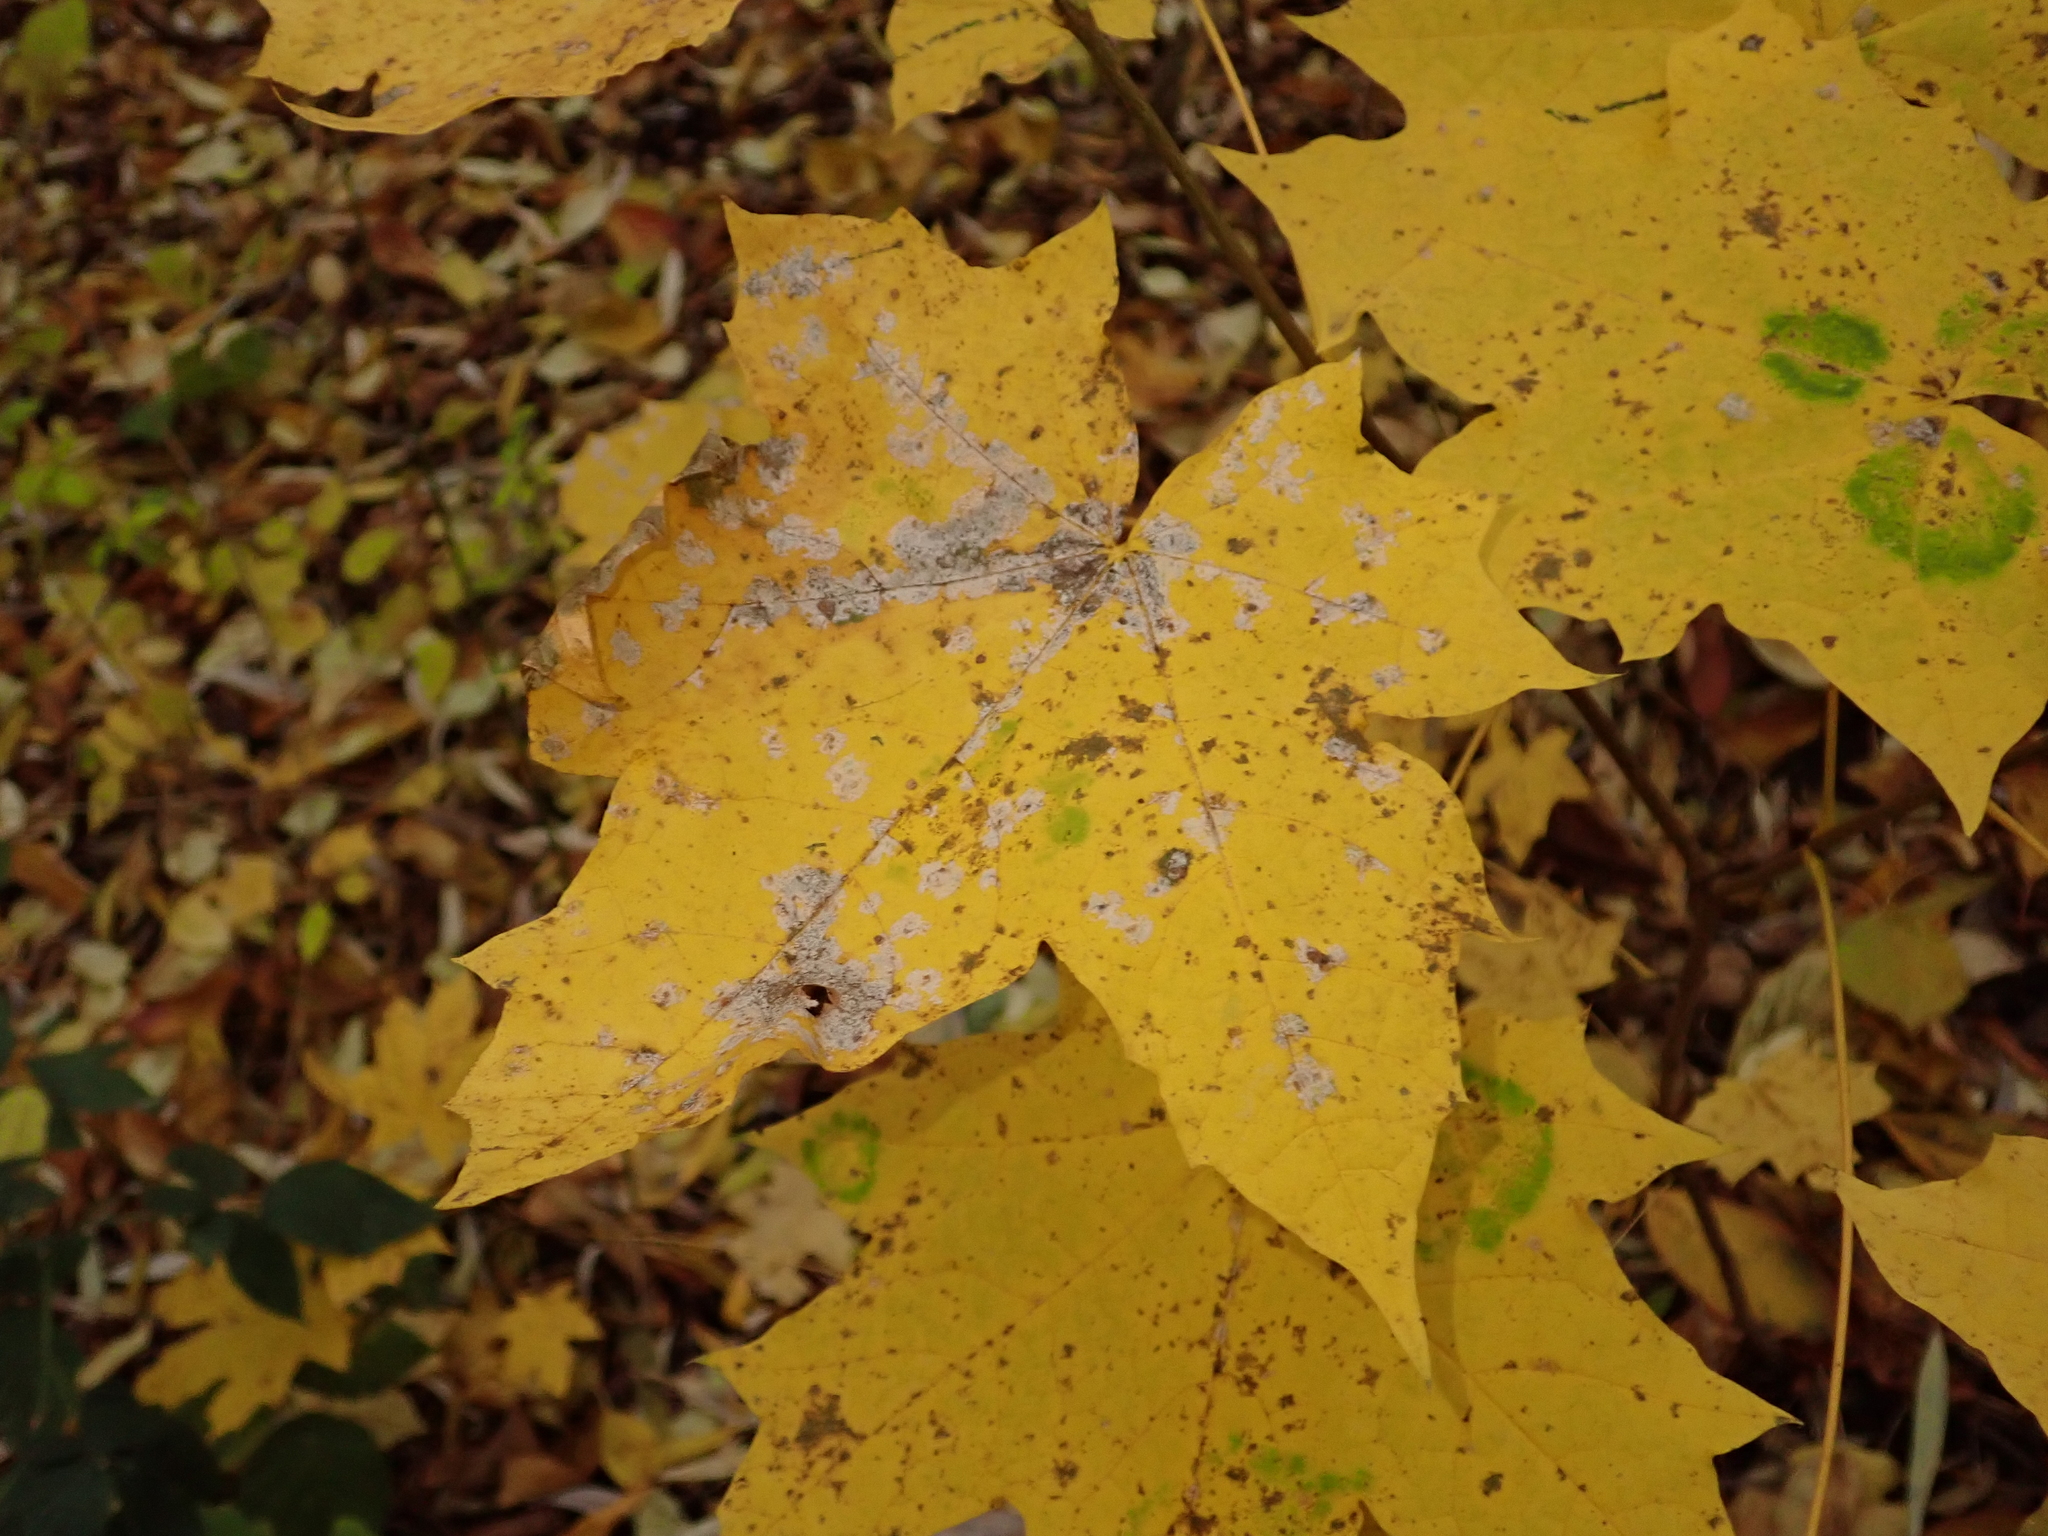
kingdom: Plantae
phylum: Tracheophyta
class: Magnoliopsida
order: Sapindales
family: Sapindaceae
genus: Acer
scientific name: Acer platanoides
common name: Norway maple
